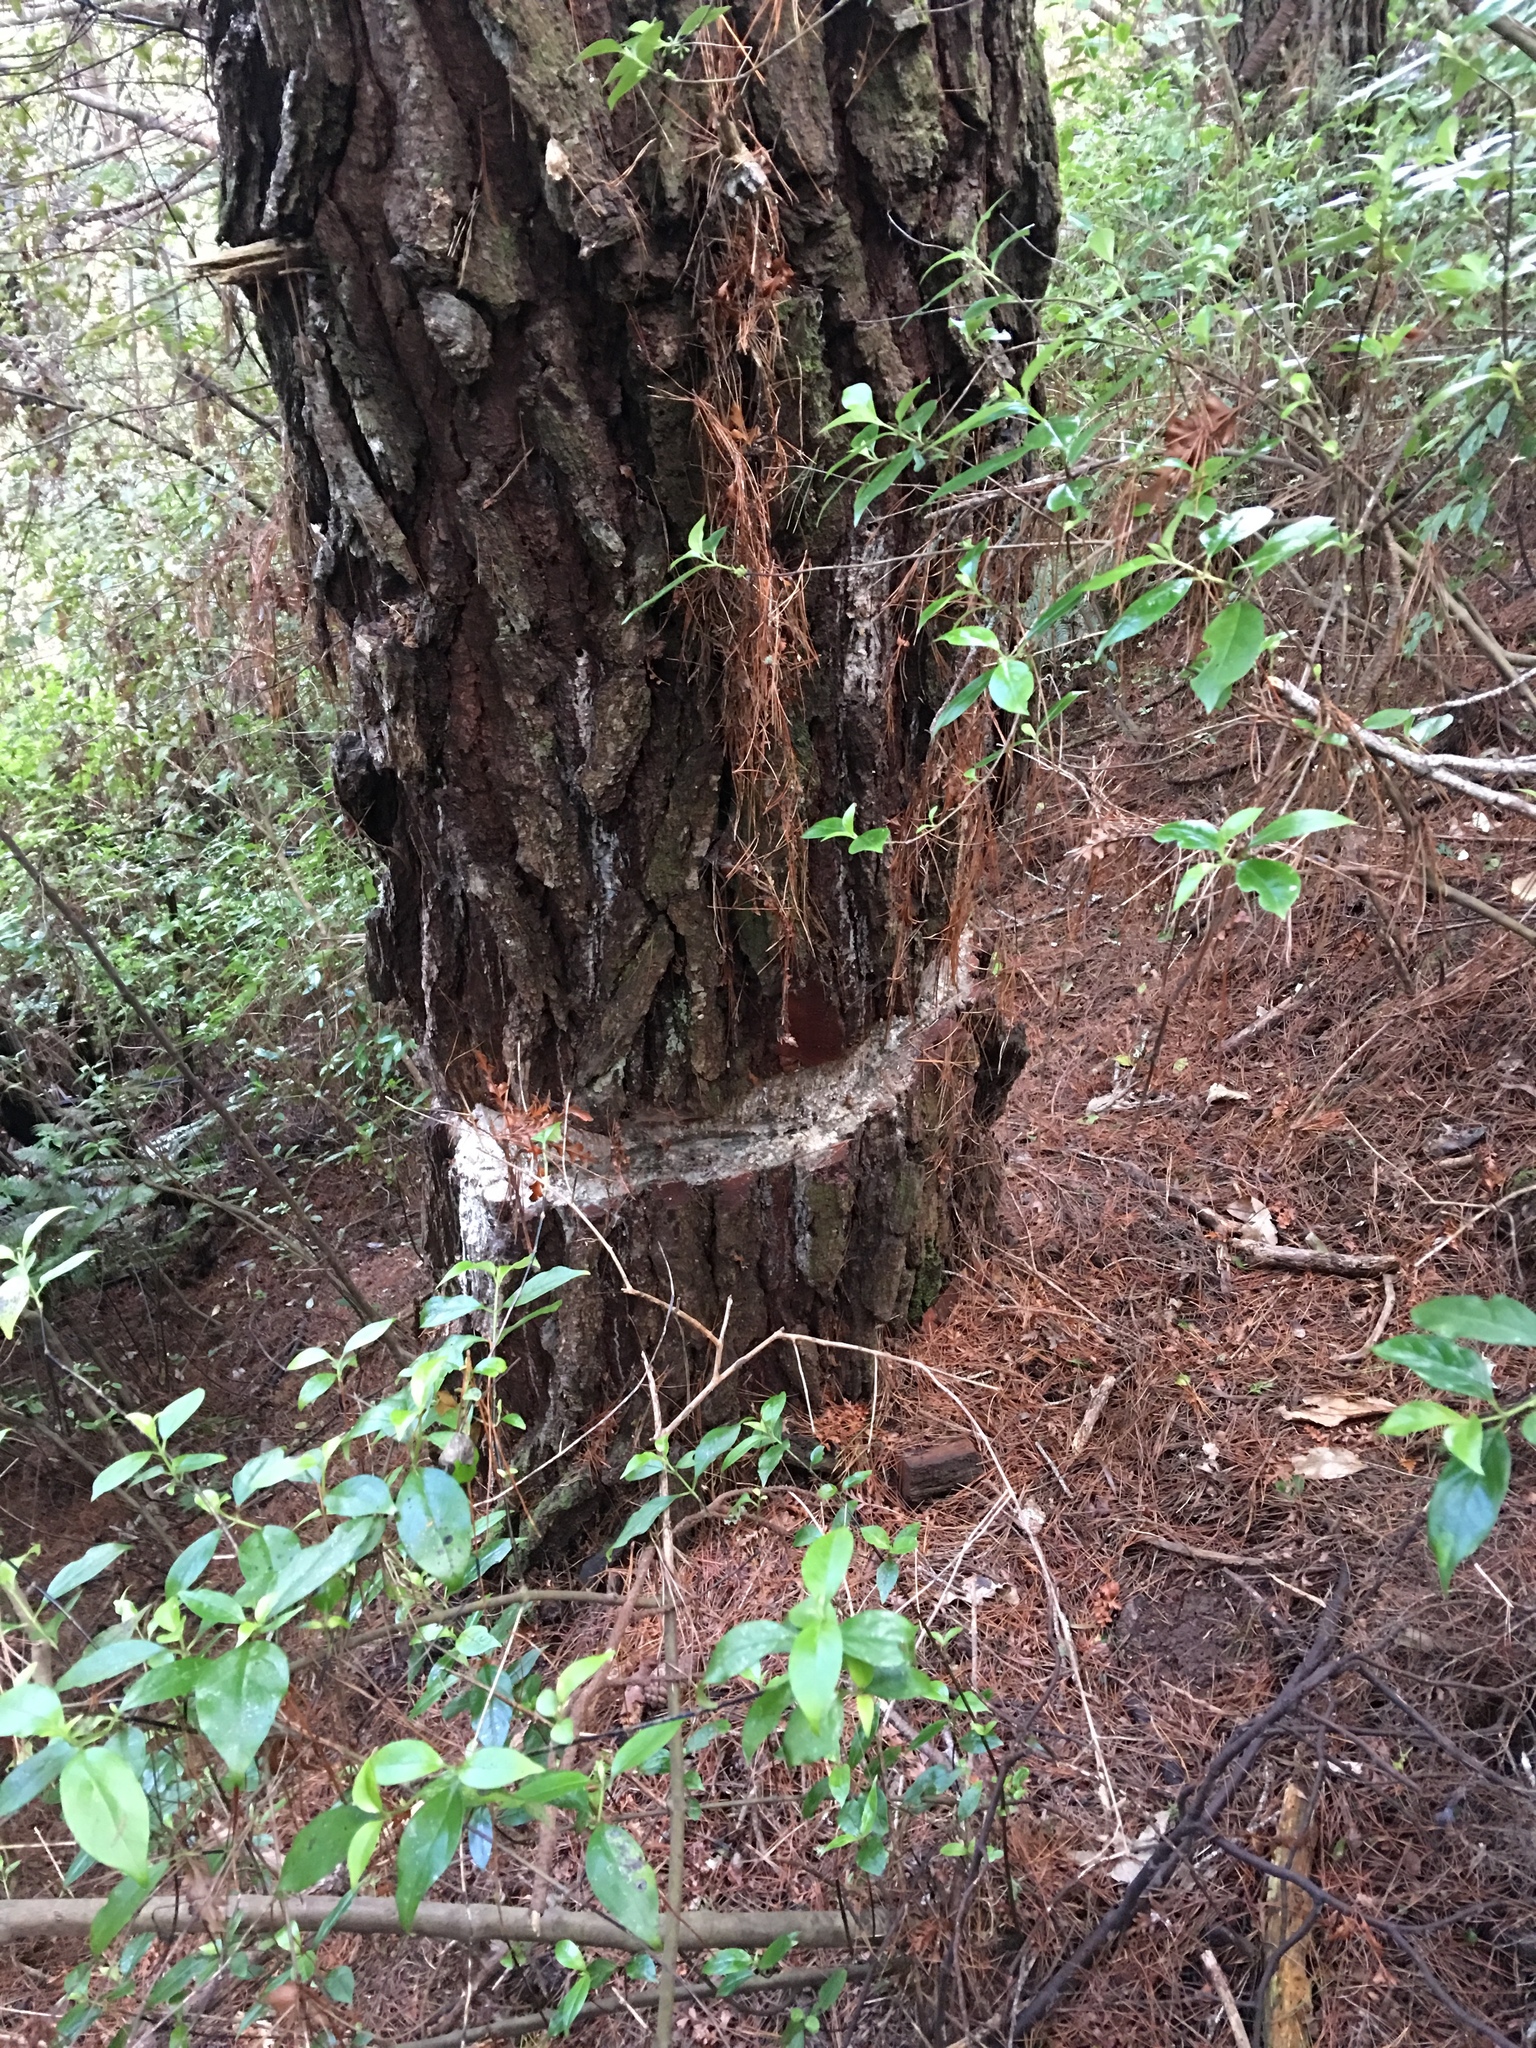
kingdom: Plantae
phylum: Tracheophyta
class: Pinopsida
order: Pinales
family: Pinaceae
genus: Pinus
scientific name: Pinus radiata
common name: Monterey pine
